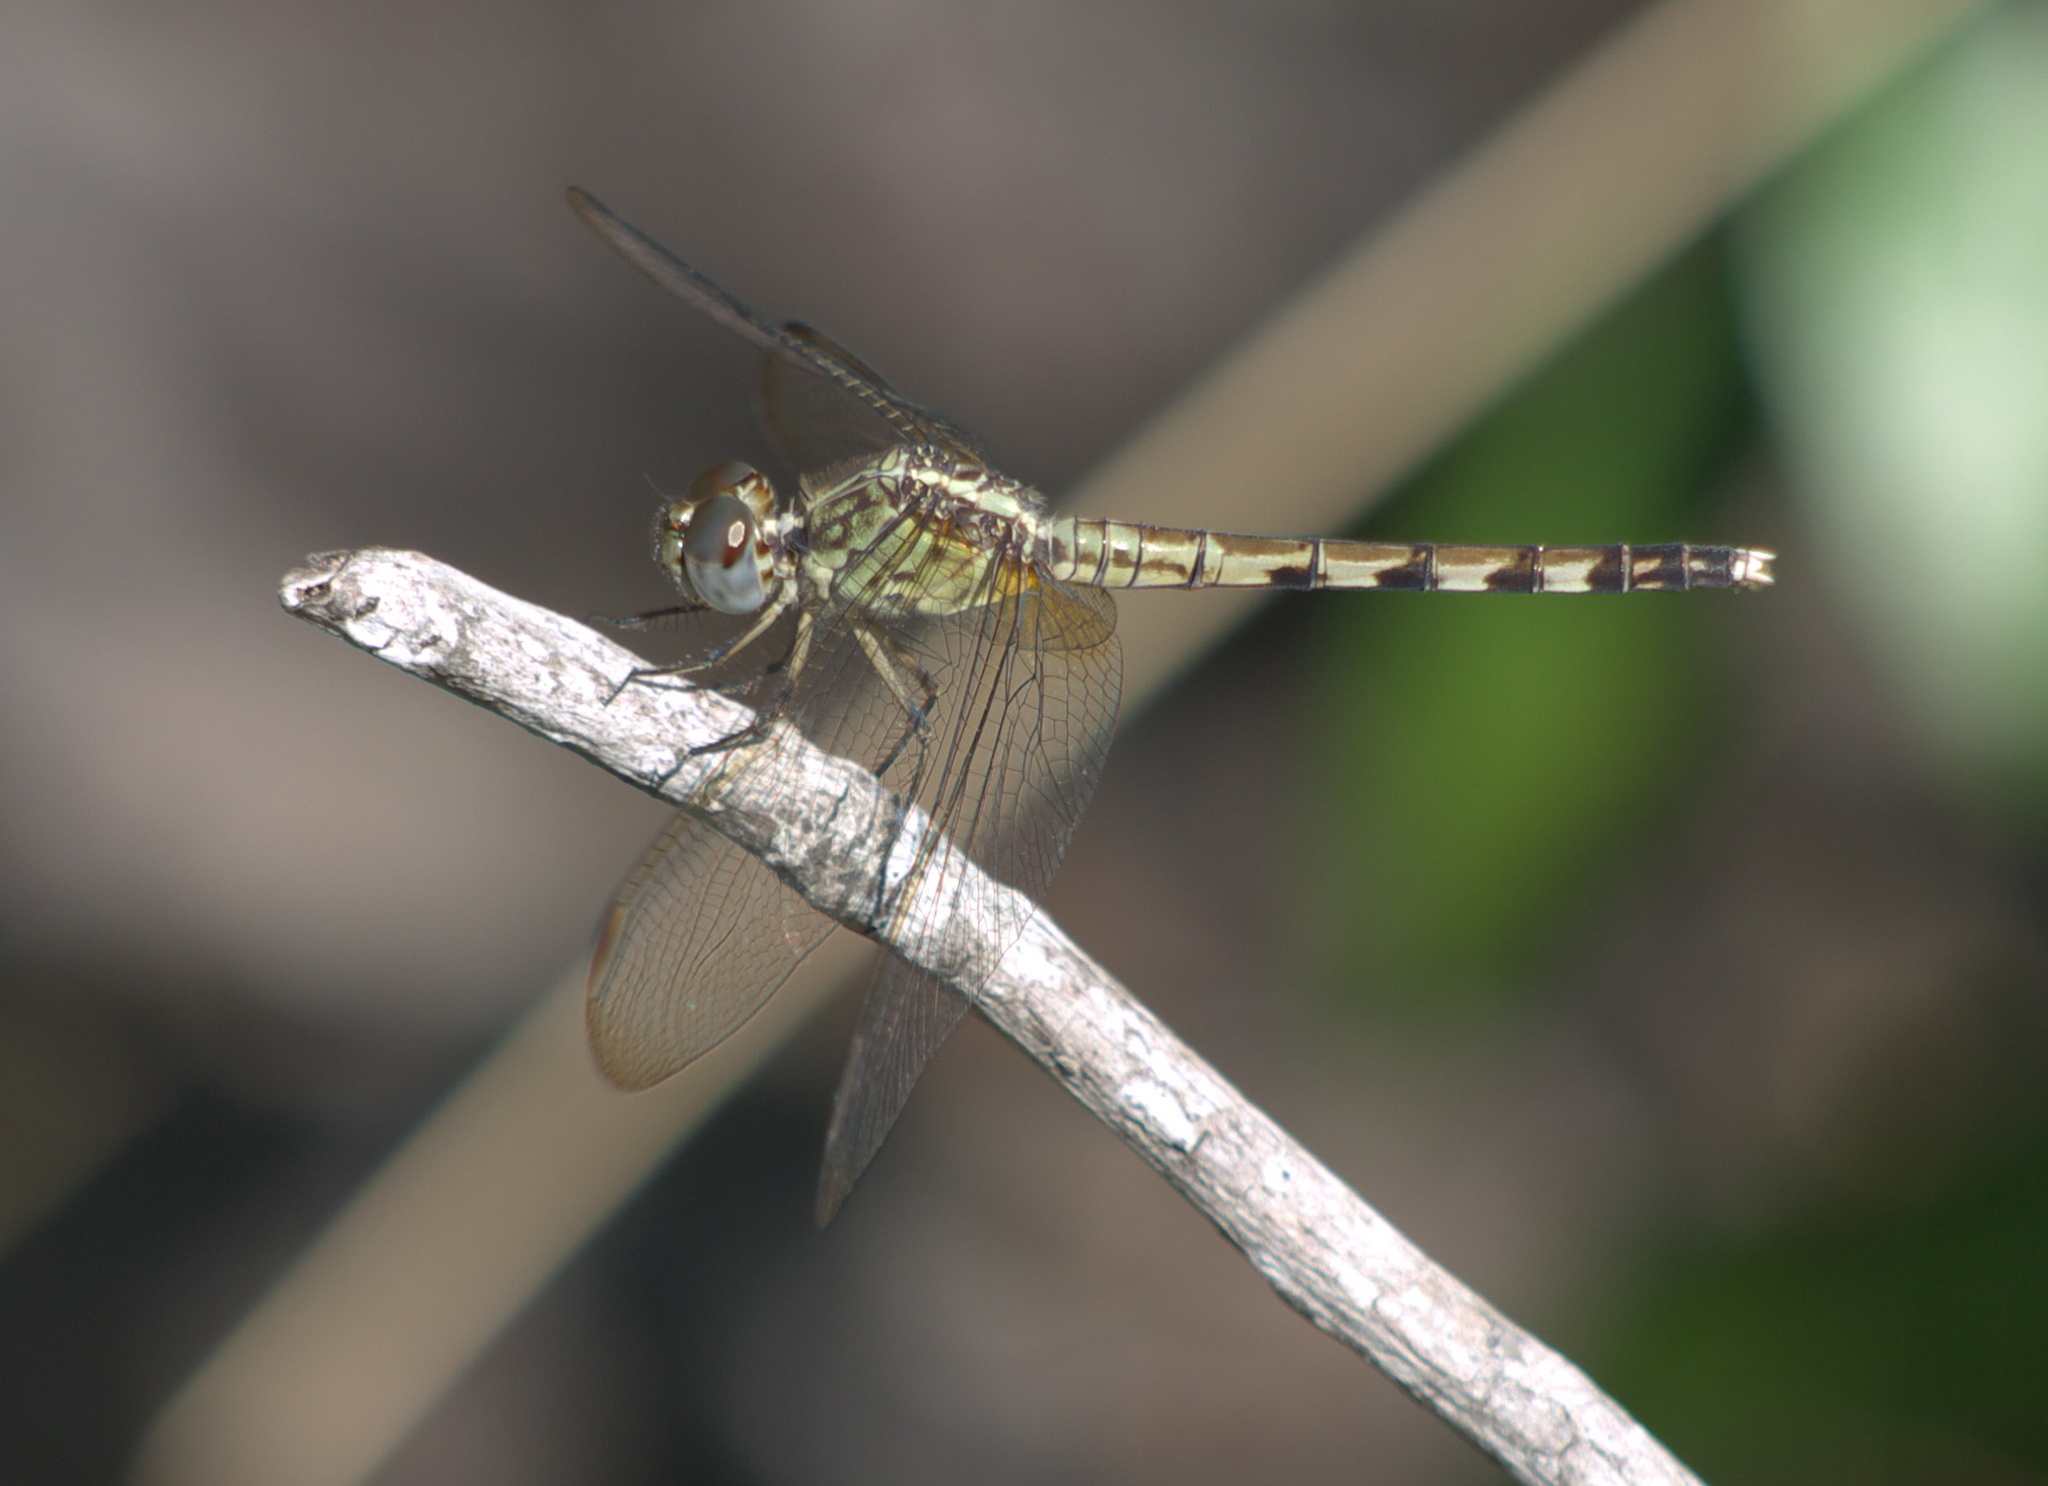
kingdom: Animalia
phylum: Arthropoda
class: Insecta
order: Odonata
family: Libellulidae
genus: Erythrodiplax
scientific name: Erythrodiplax umbrata
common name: Band-winged dragonlet
